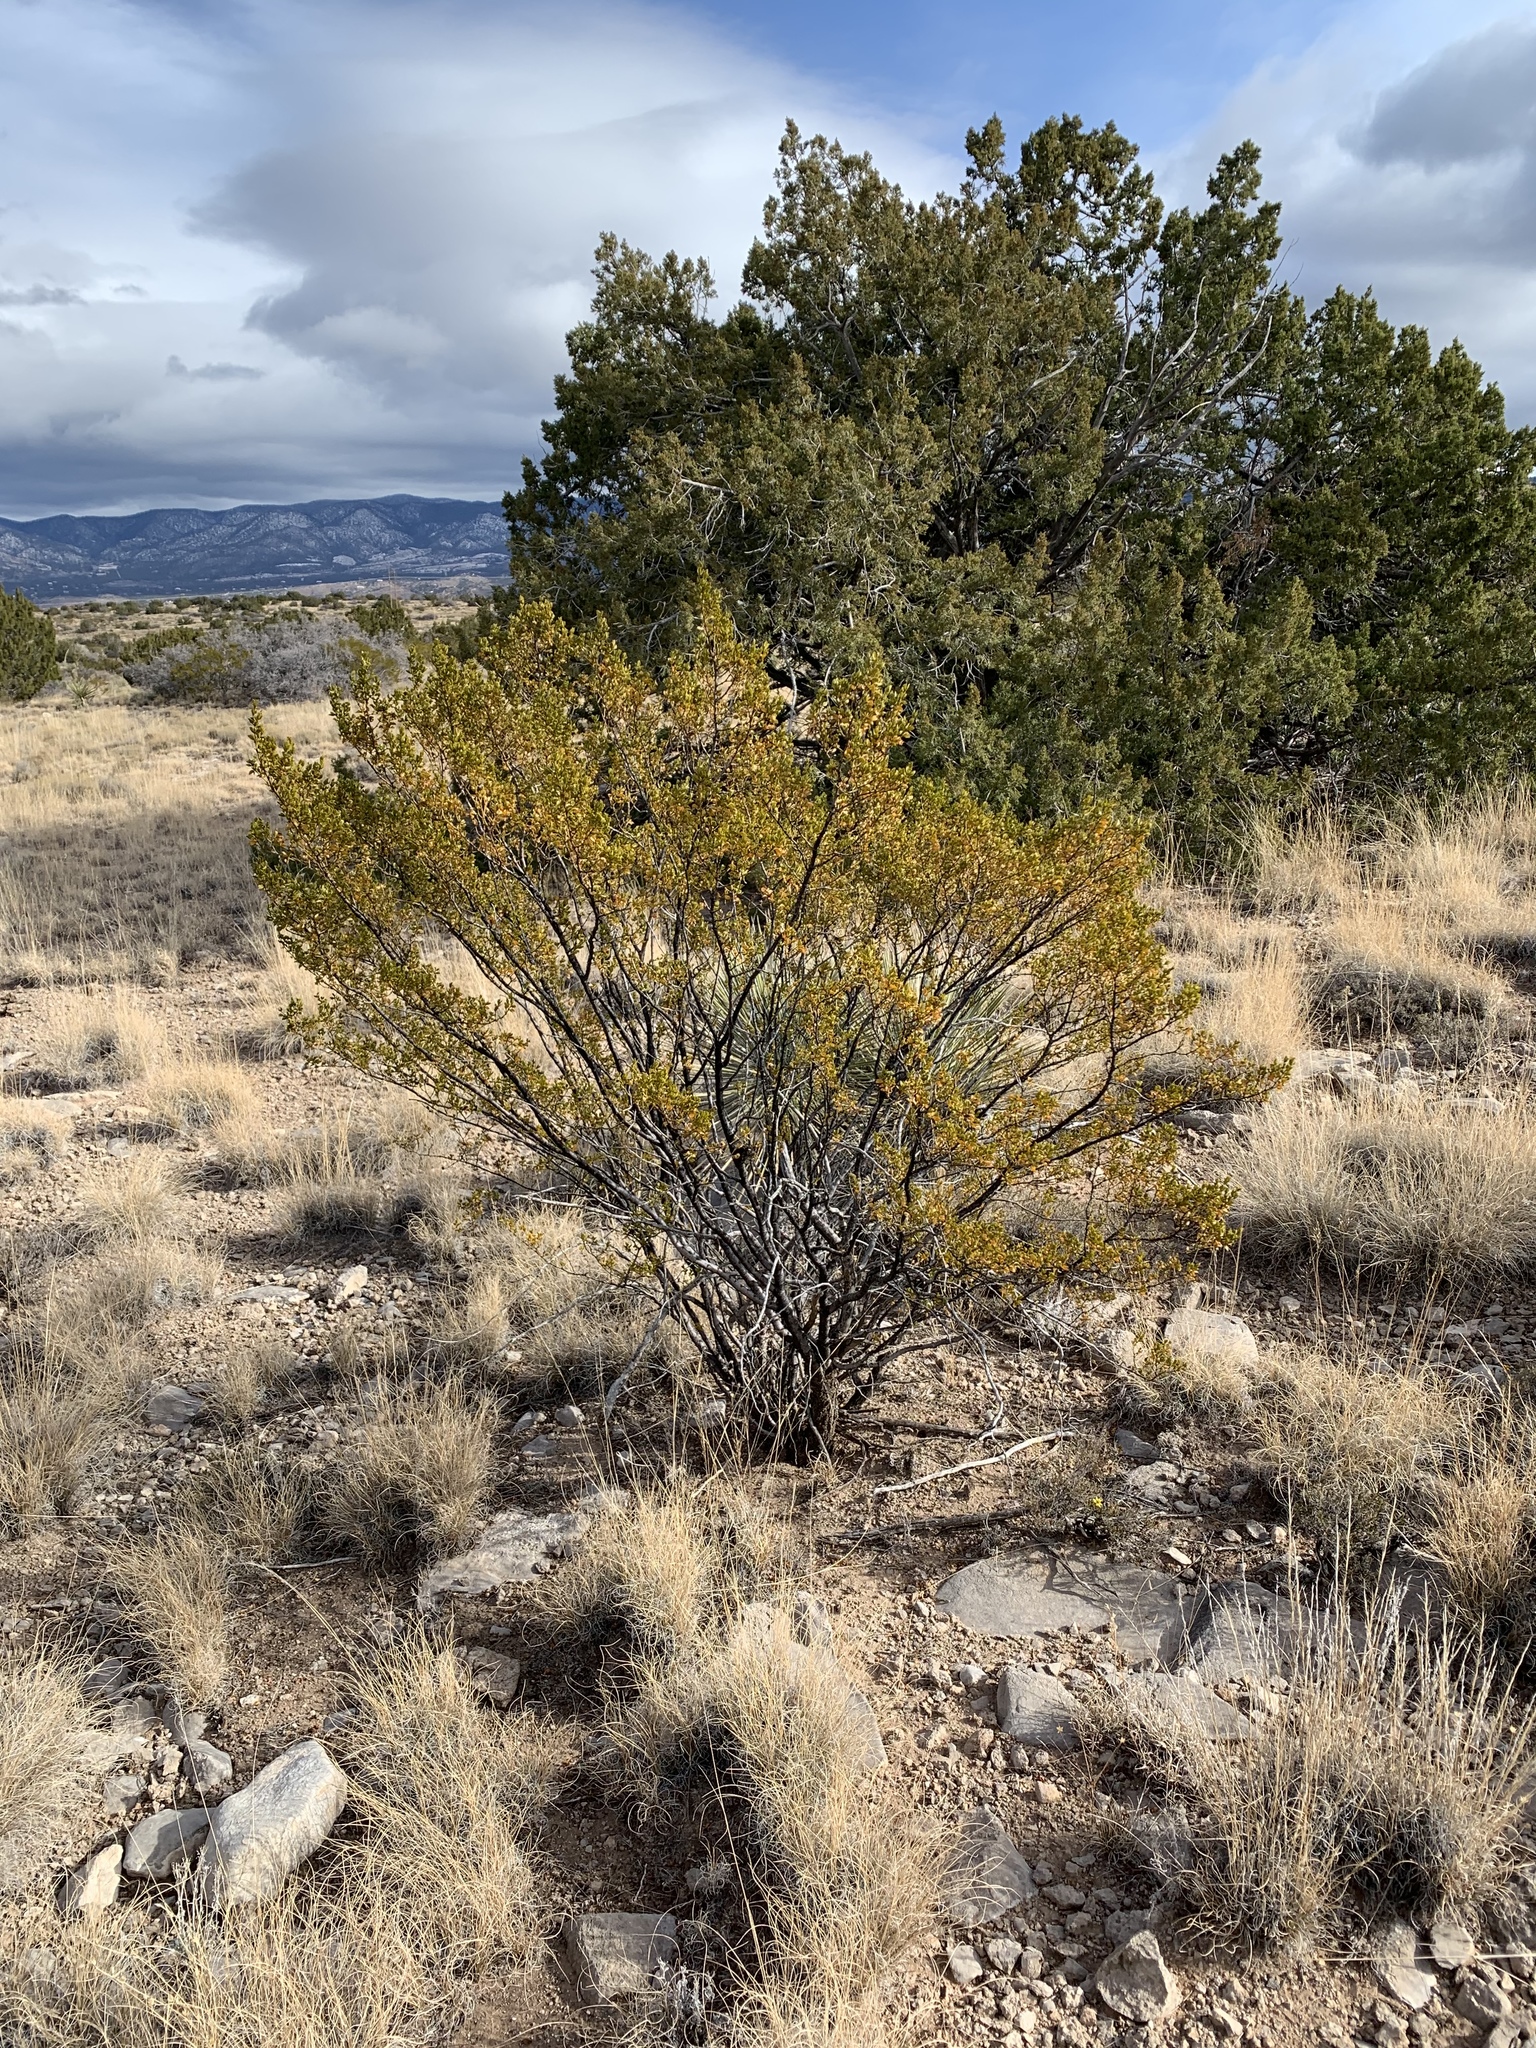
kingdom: Plantae
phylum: Tracheophyta
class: Magnoliopsida
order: Zygophyllales
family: Zygophyllaceae
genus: Larrea
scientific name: Larrea tridentata
